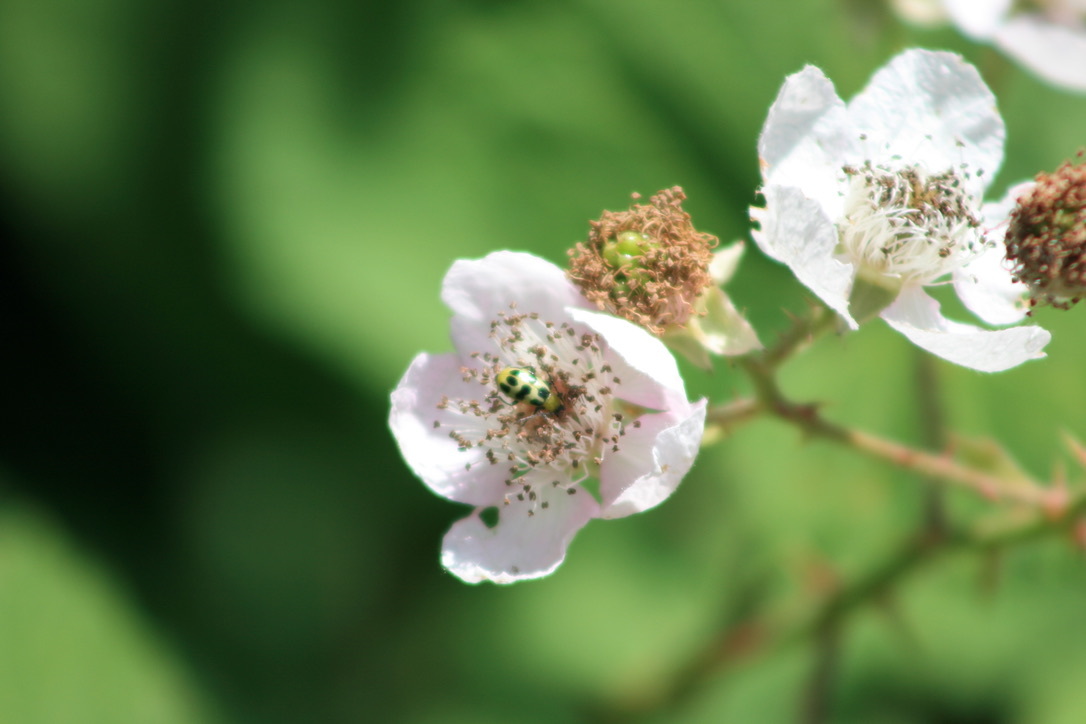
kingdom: Animalia
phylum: Arthropoda
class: Insecta
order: Coleoptera
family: Chrysomelidae
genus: Diabrotica
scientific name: Diabrotica undecimpunctata
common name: Spotted cucumber beetle
